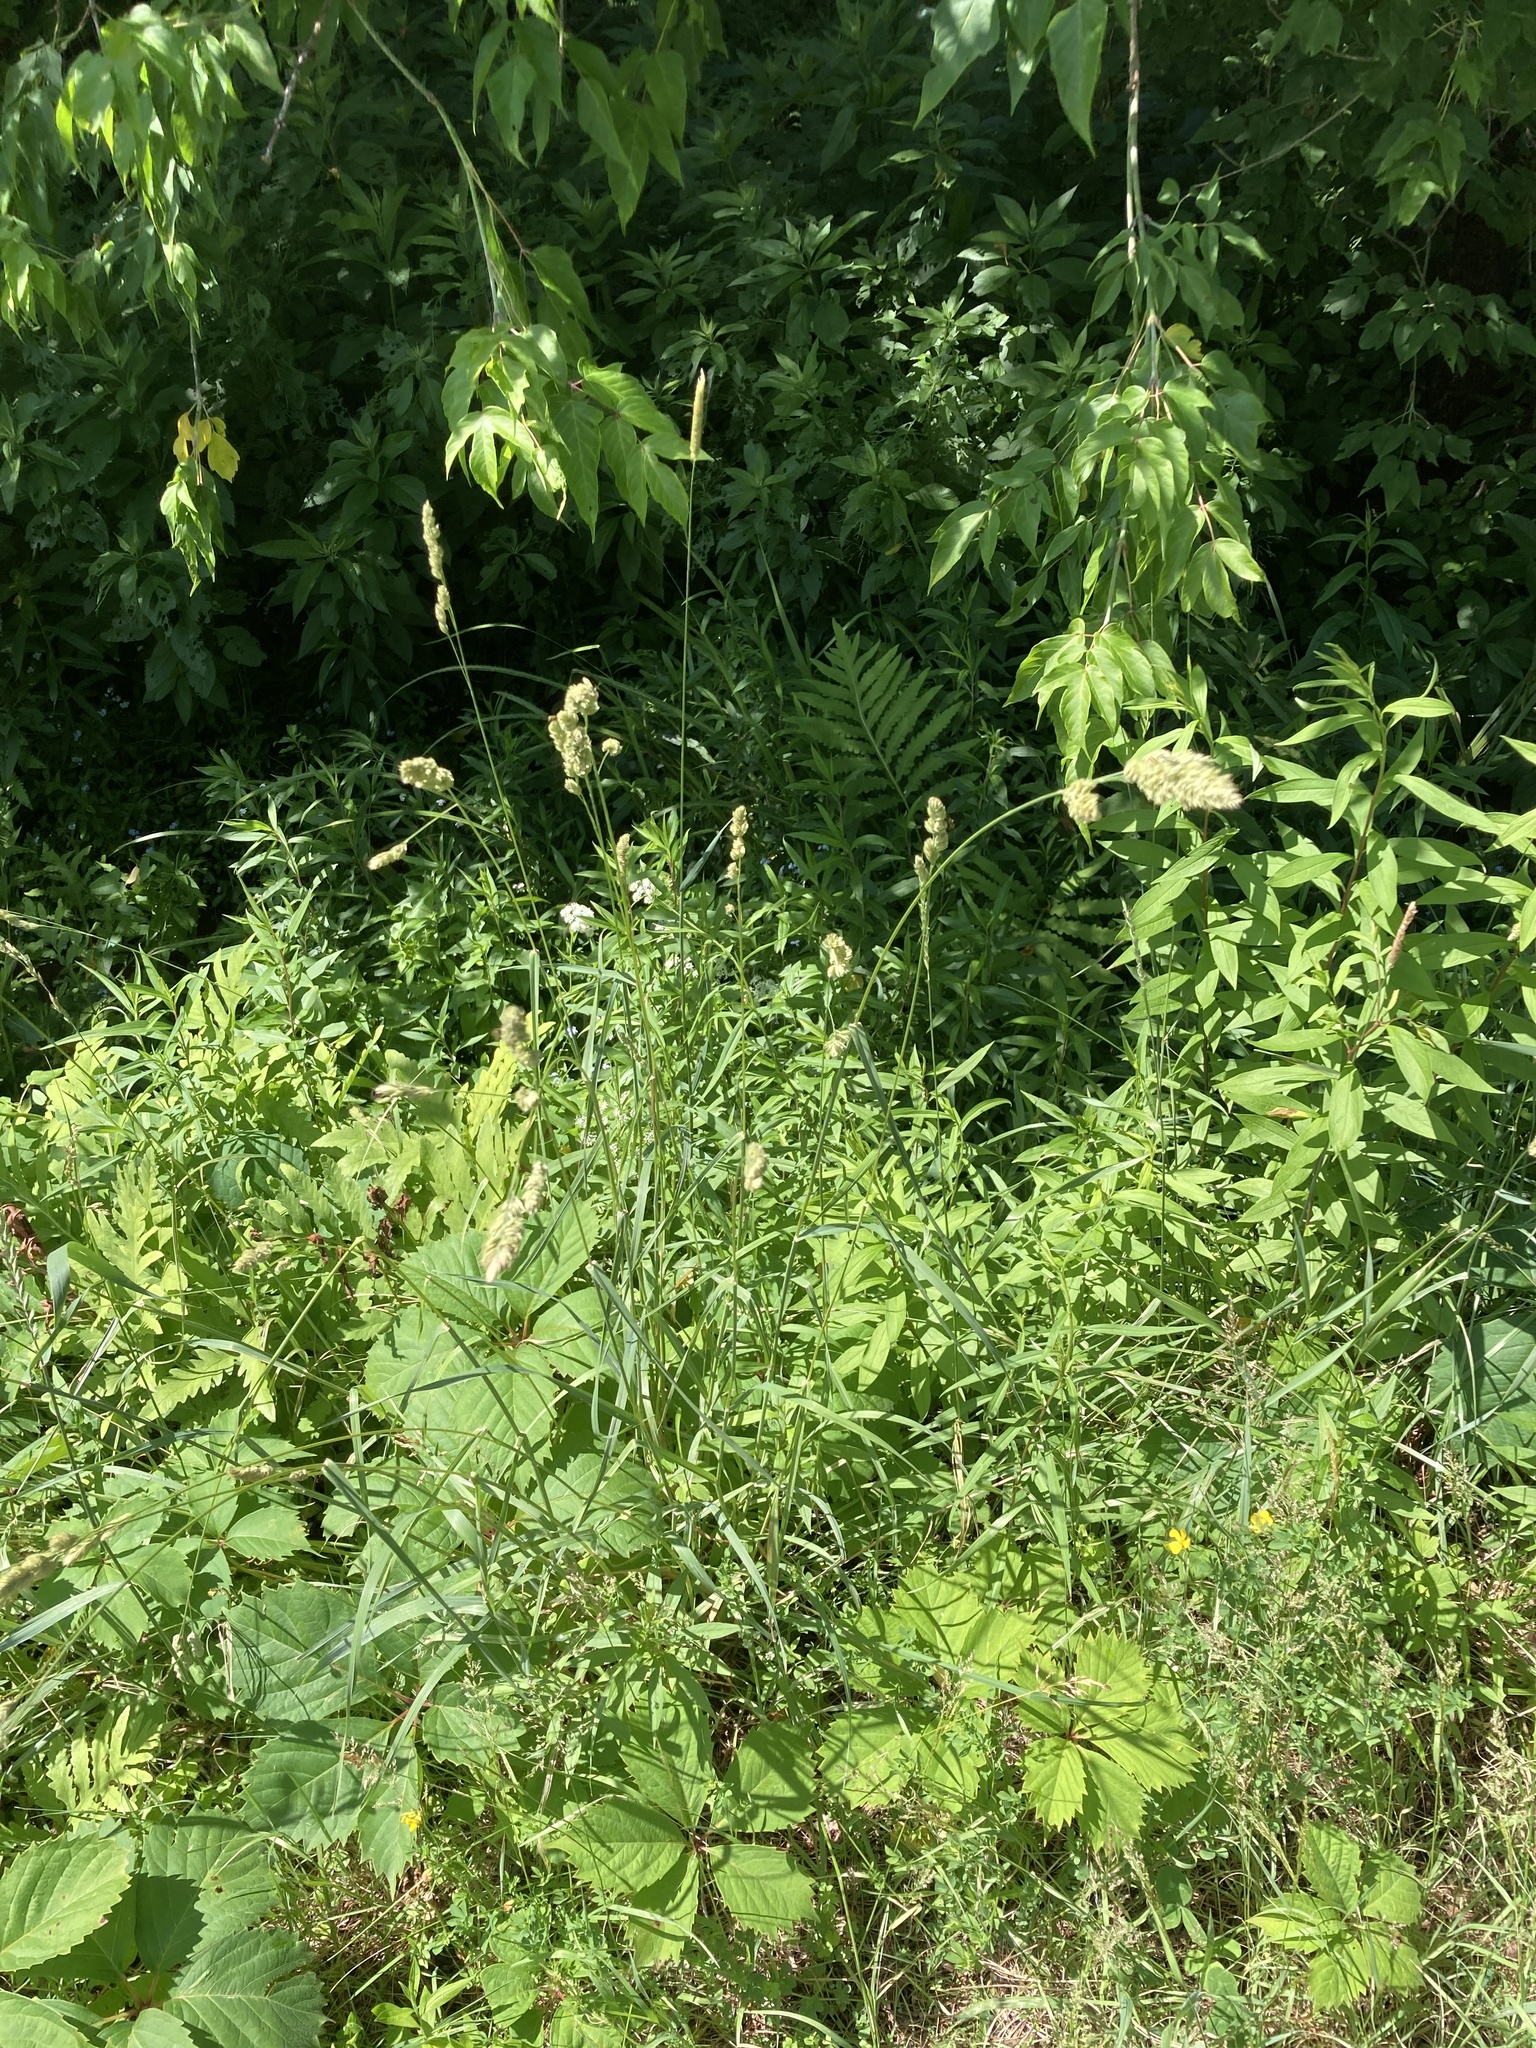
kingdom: Plantae
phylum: Tracheophyta
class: Liliopsida
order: Poales
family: Poaceae
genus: Dactylis
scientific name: Dactylis glomerata
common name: Orchardgrass
